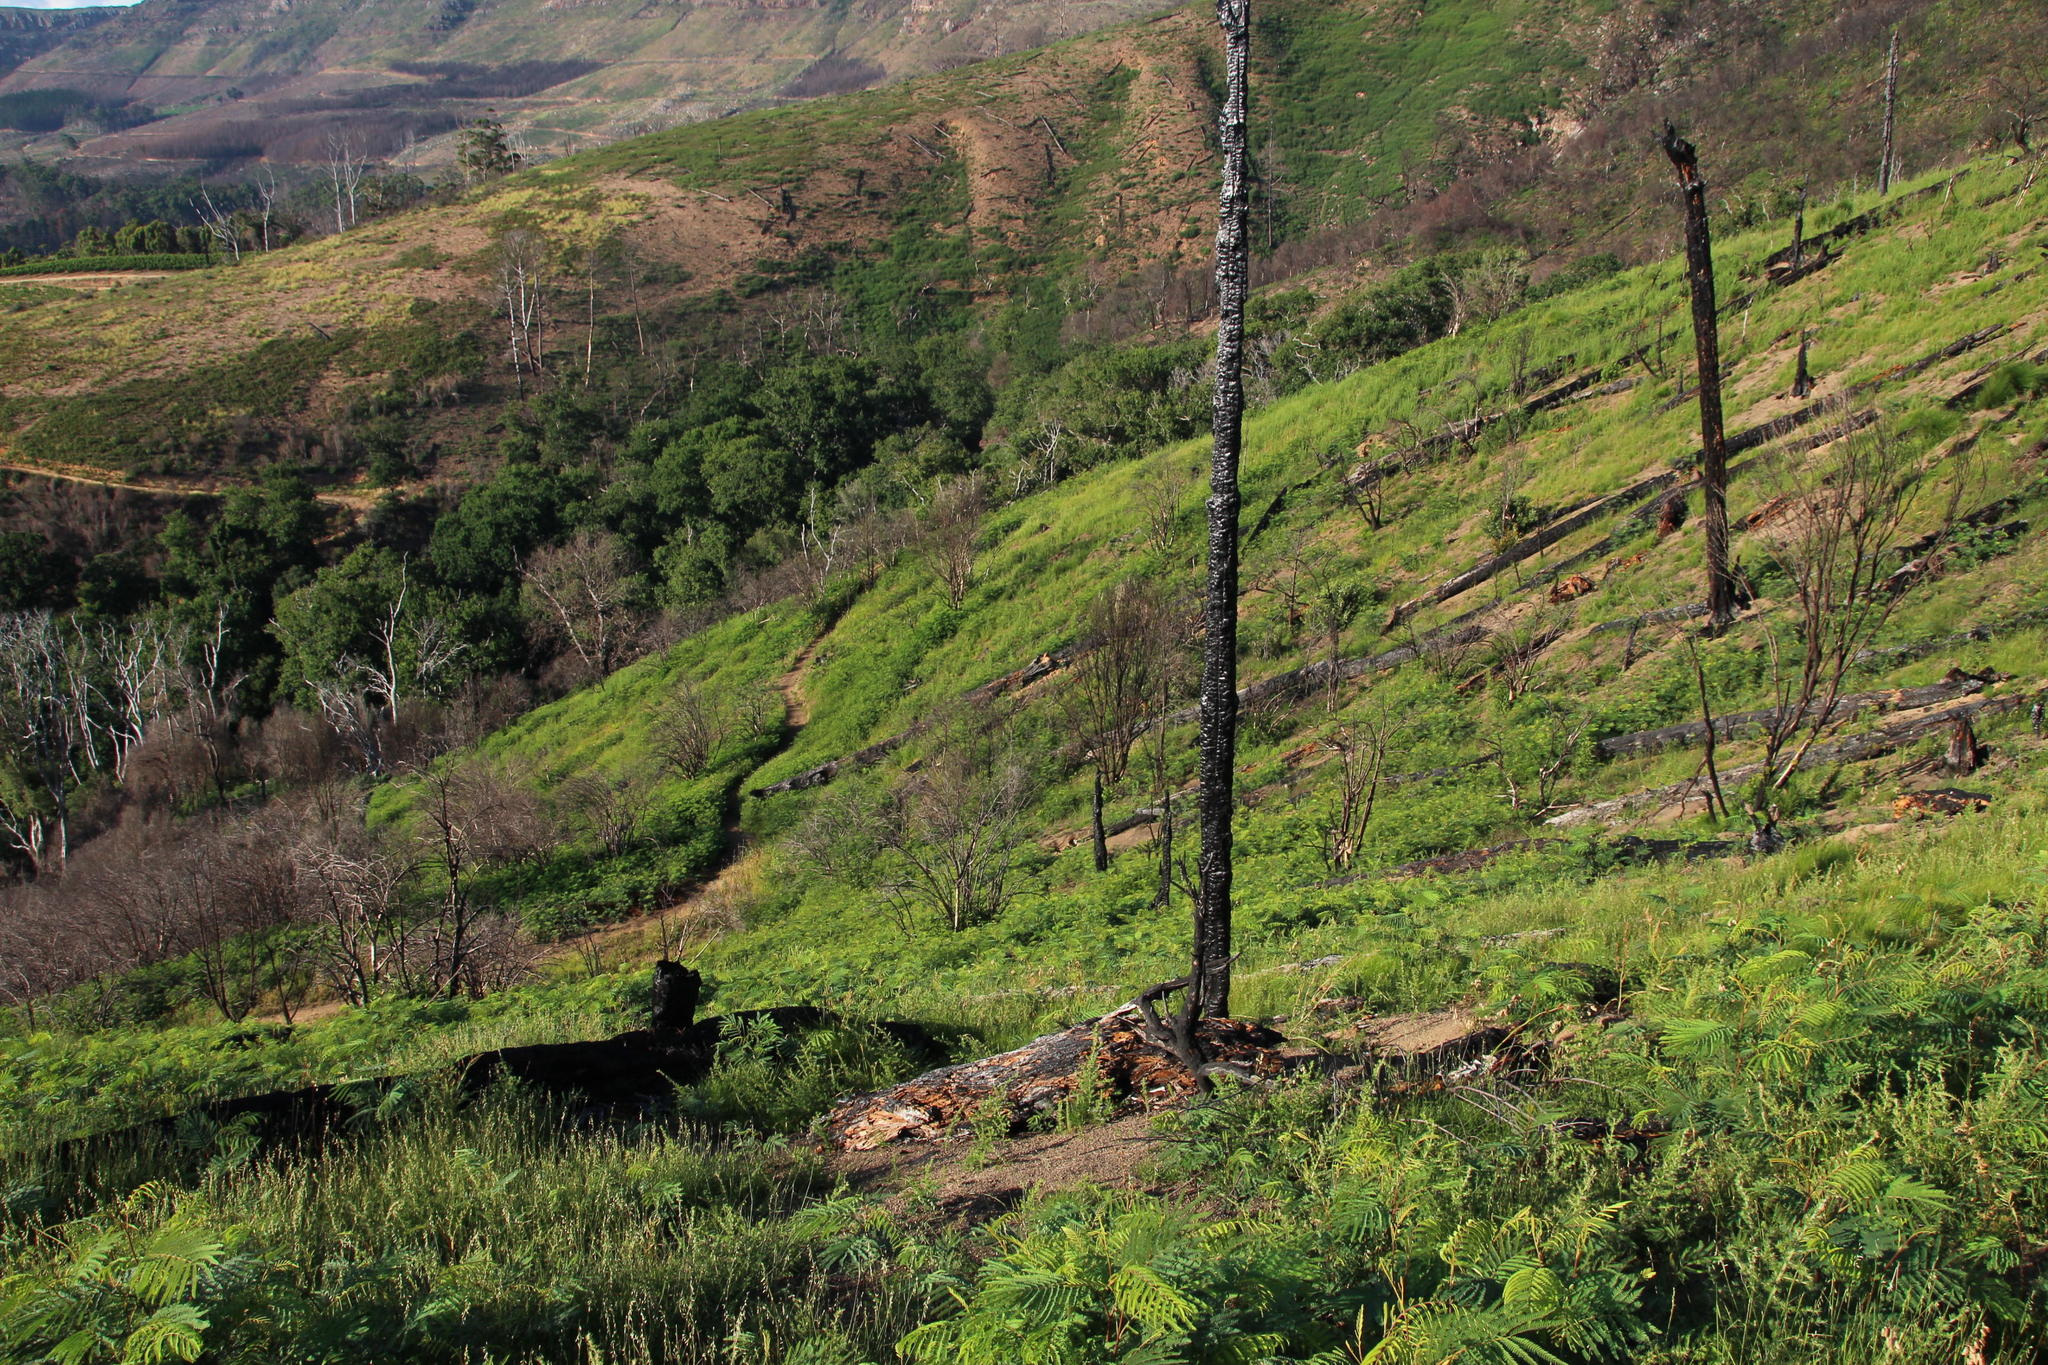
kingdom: Plantae
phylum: Tracheophyta
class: Magnoliopsida
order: Fabales
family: Fabaceae
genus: Paraserianthes
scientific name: Paraserianthes lophantha
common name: Plume albizia
